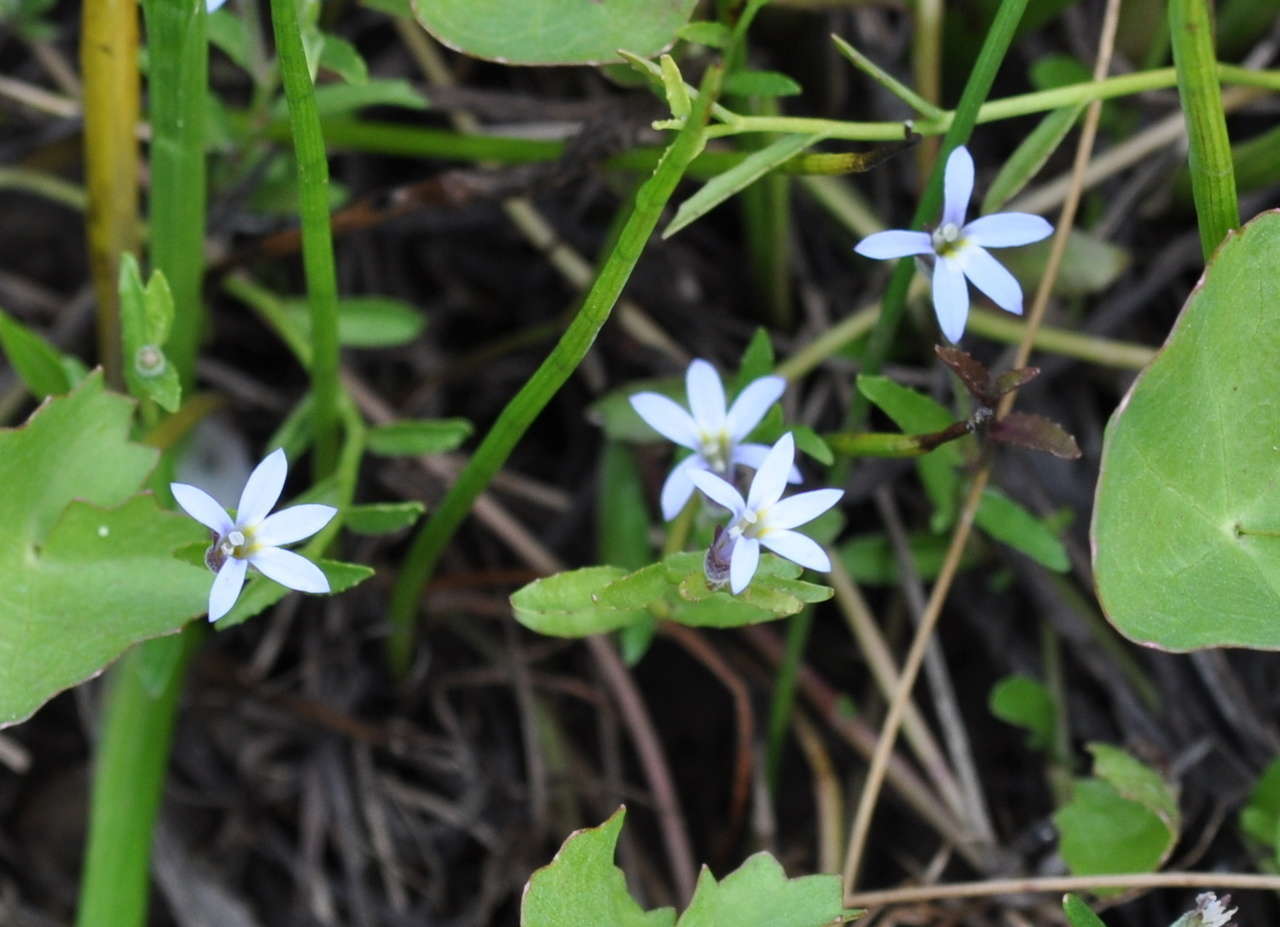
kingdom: Plantae
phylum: Tracheophyta
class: Magnoliopsida
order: Asterales
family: Campanulaceae
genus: Lobelia
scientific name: Lobelia pratioides
